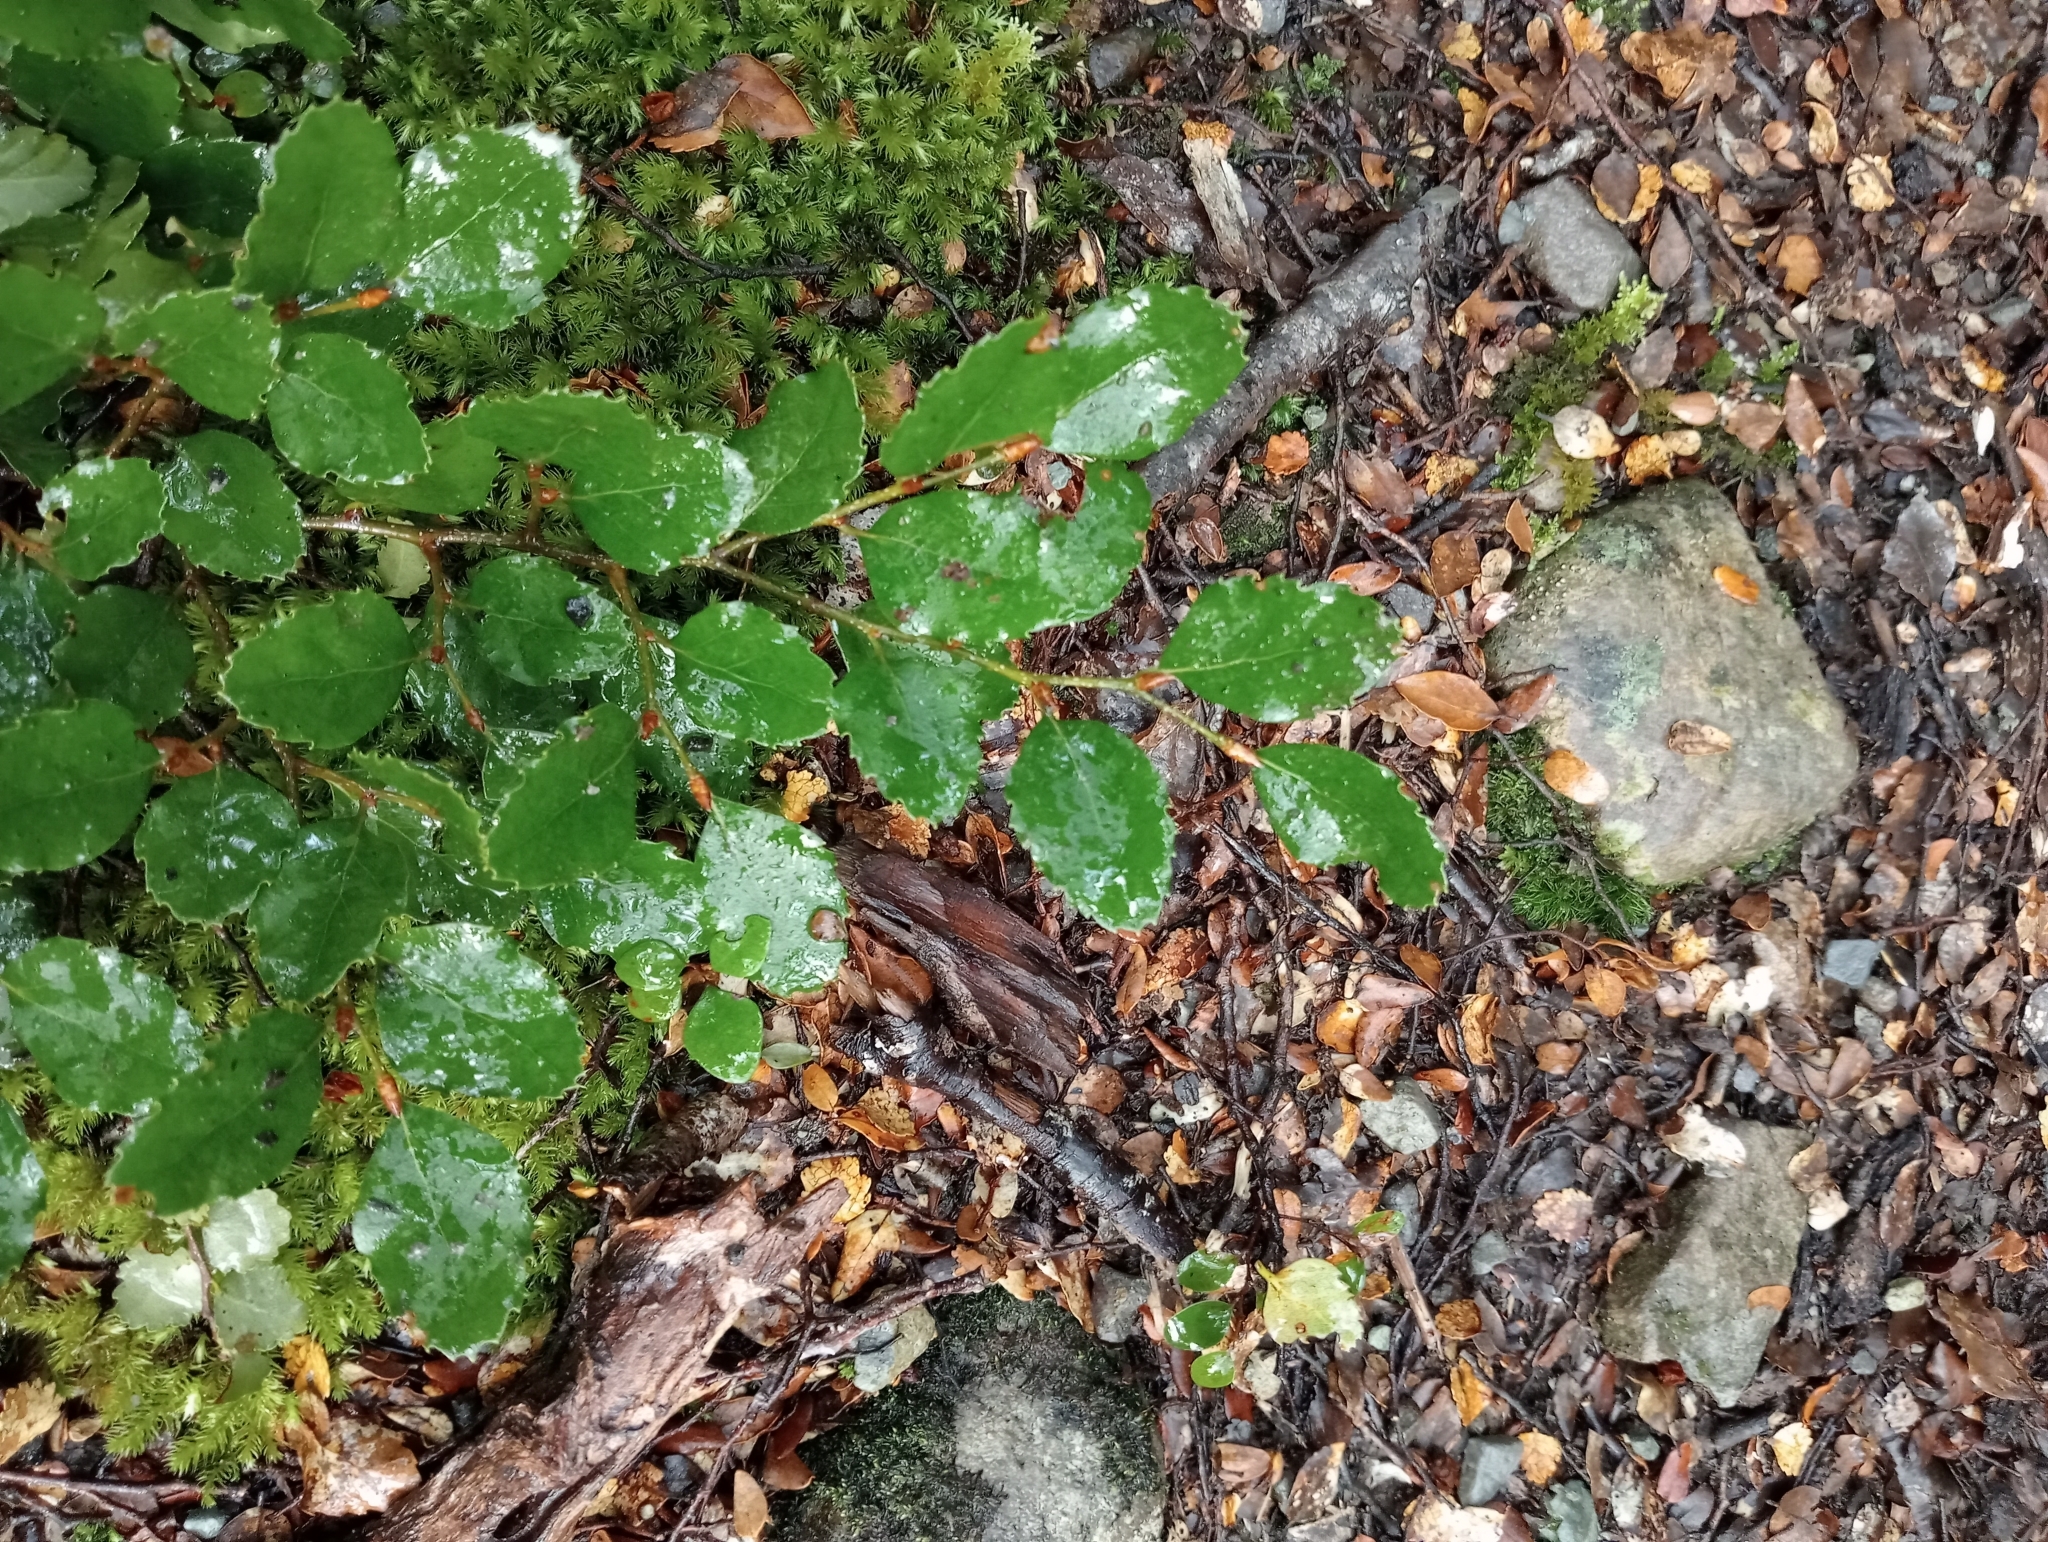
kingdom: Plantae
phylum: Tracheophyta
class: Magnoliopsida
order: Fagales
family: Nothofagaceae
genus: Nothofagus
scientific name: Nothofagus fusca
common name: Red beech
